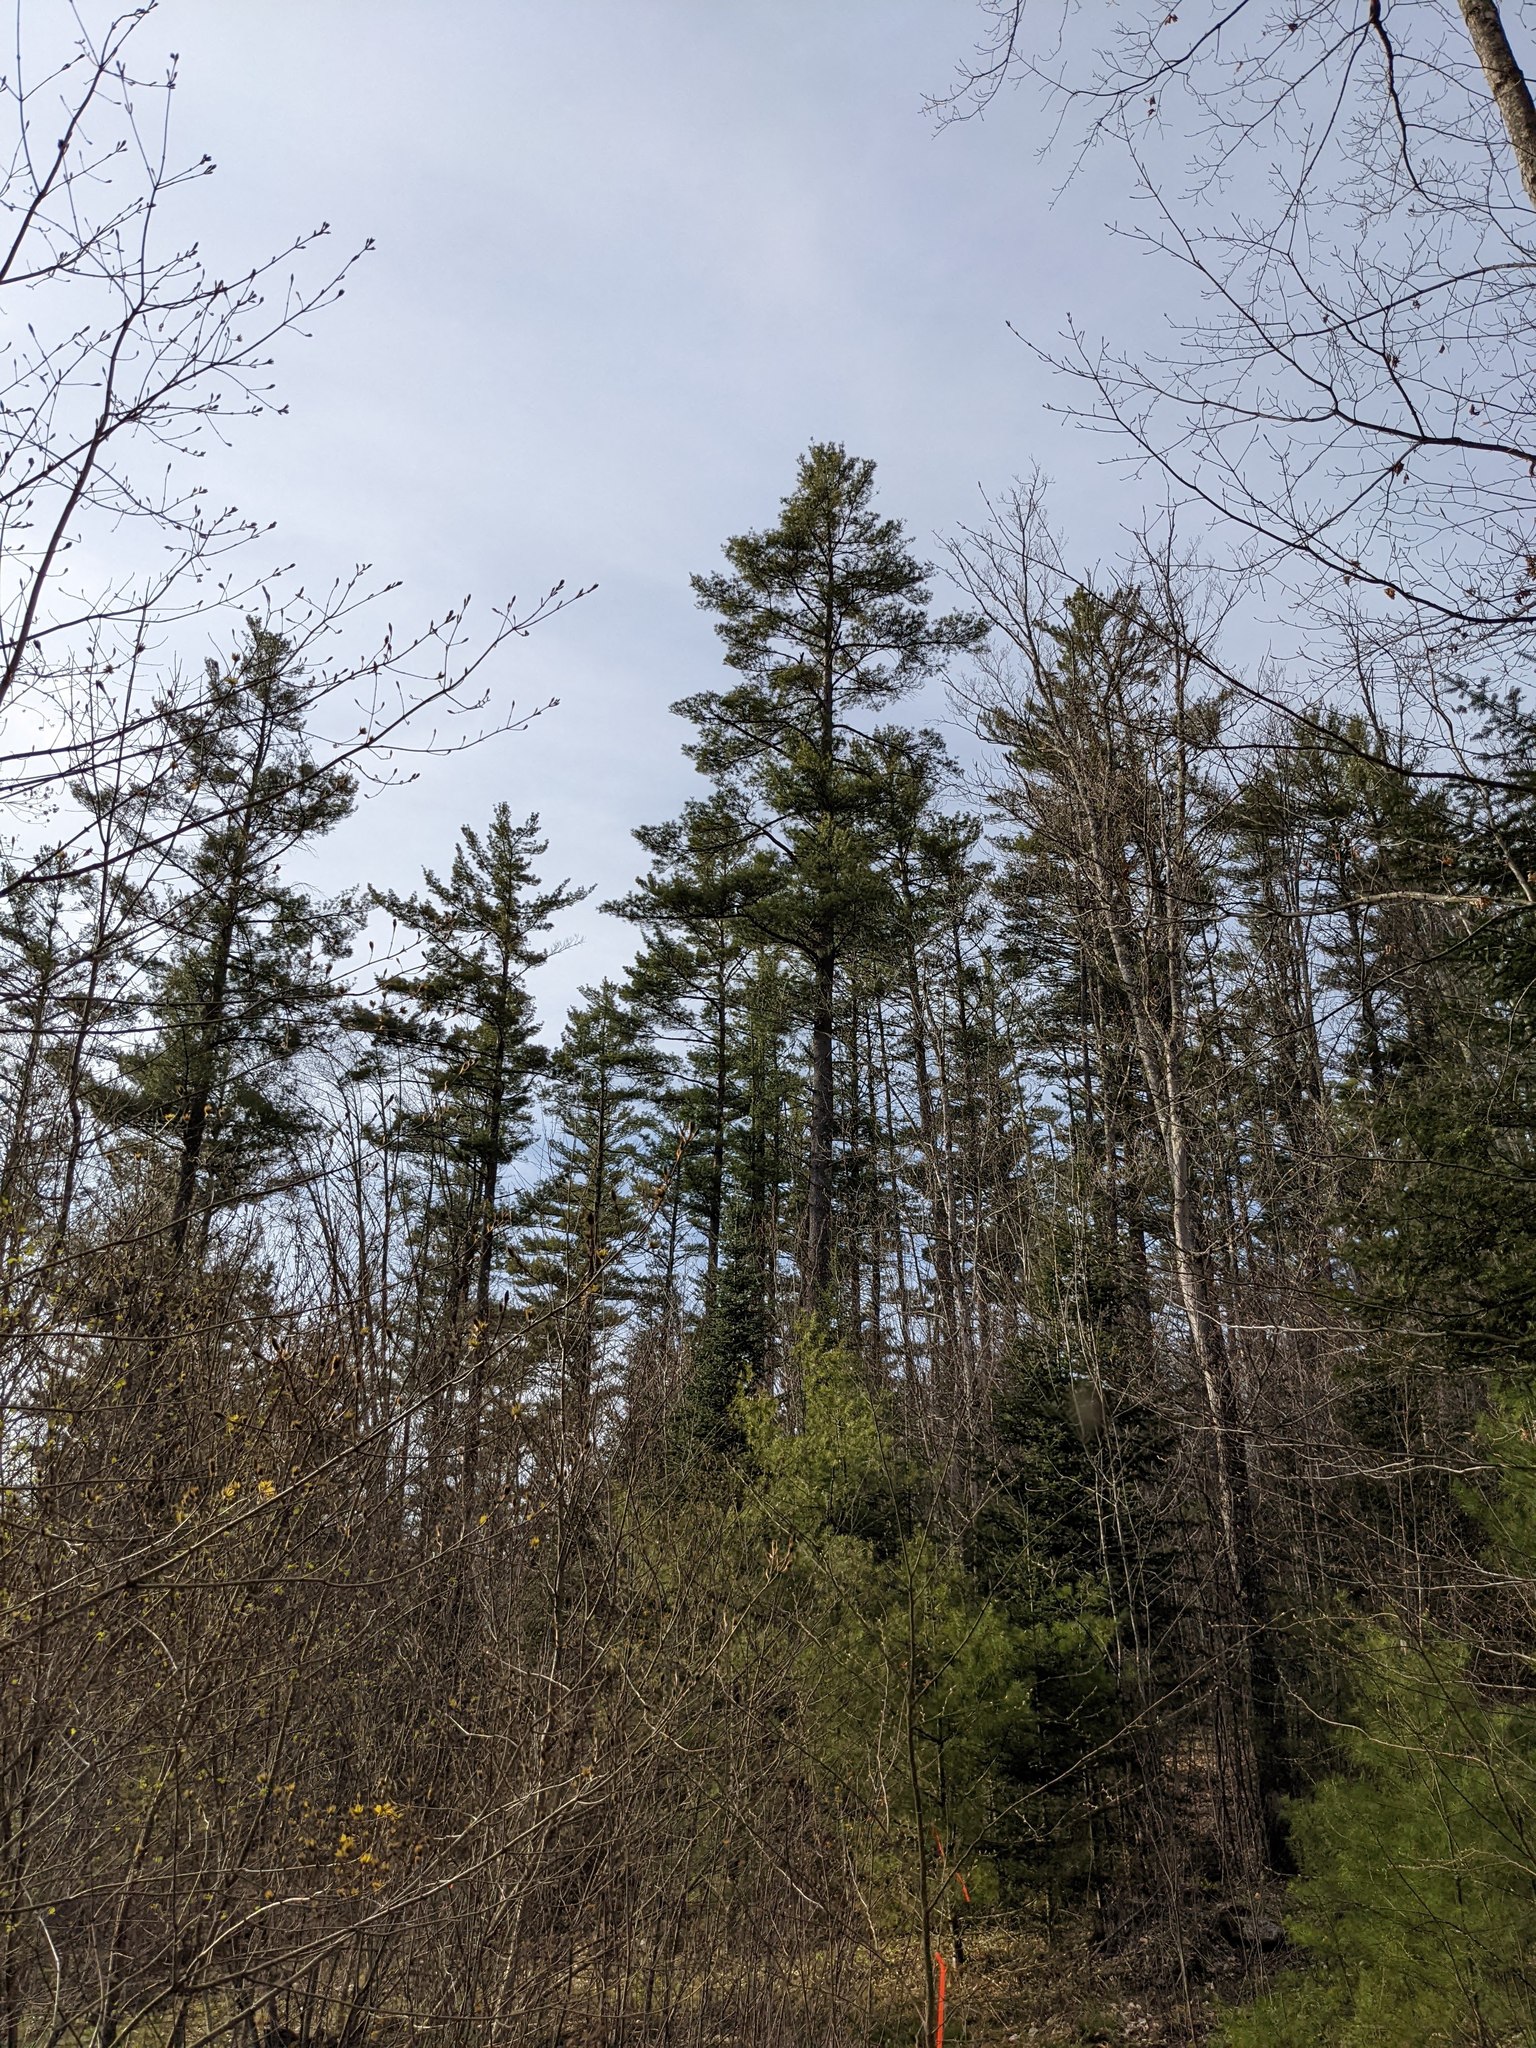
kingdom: Plantae
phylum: Tracheophyta
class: Pinopsida
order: Pinales
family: Pinaceae
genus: Pinus
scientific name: Pinus strobus
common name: Weymouth pine
